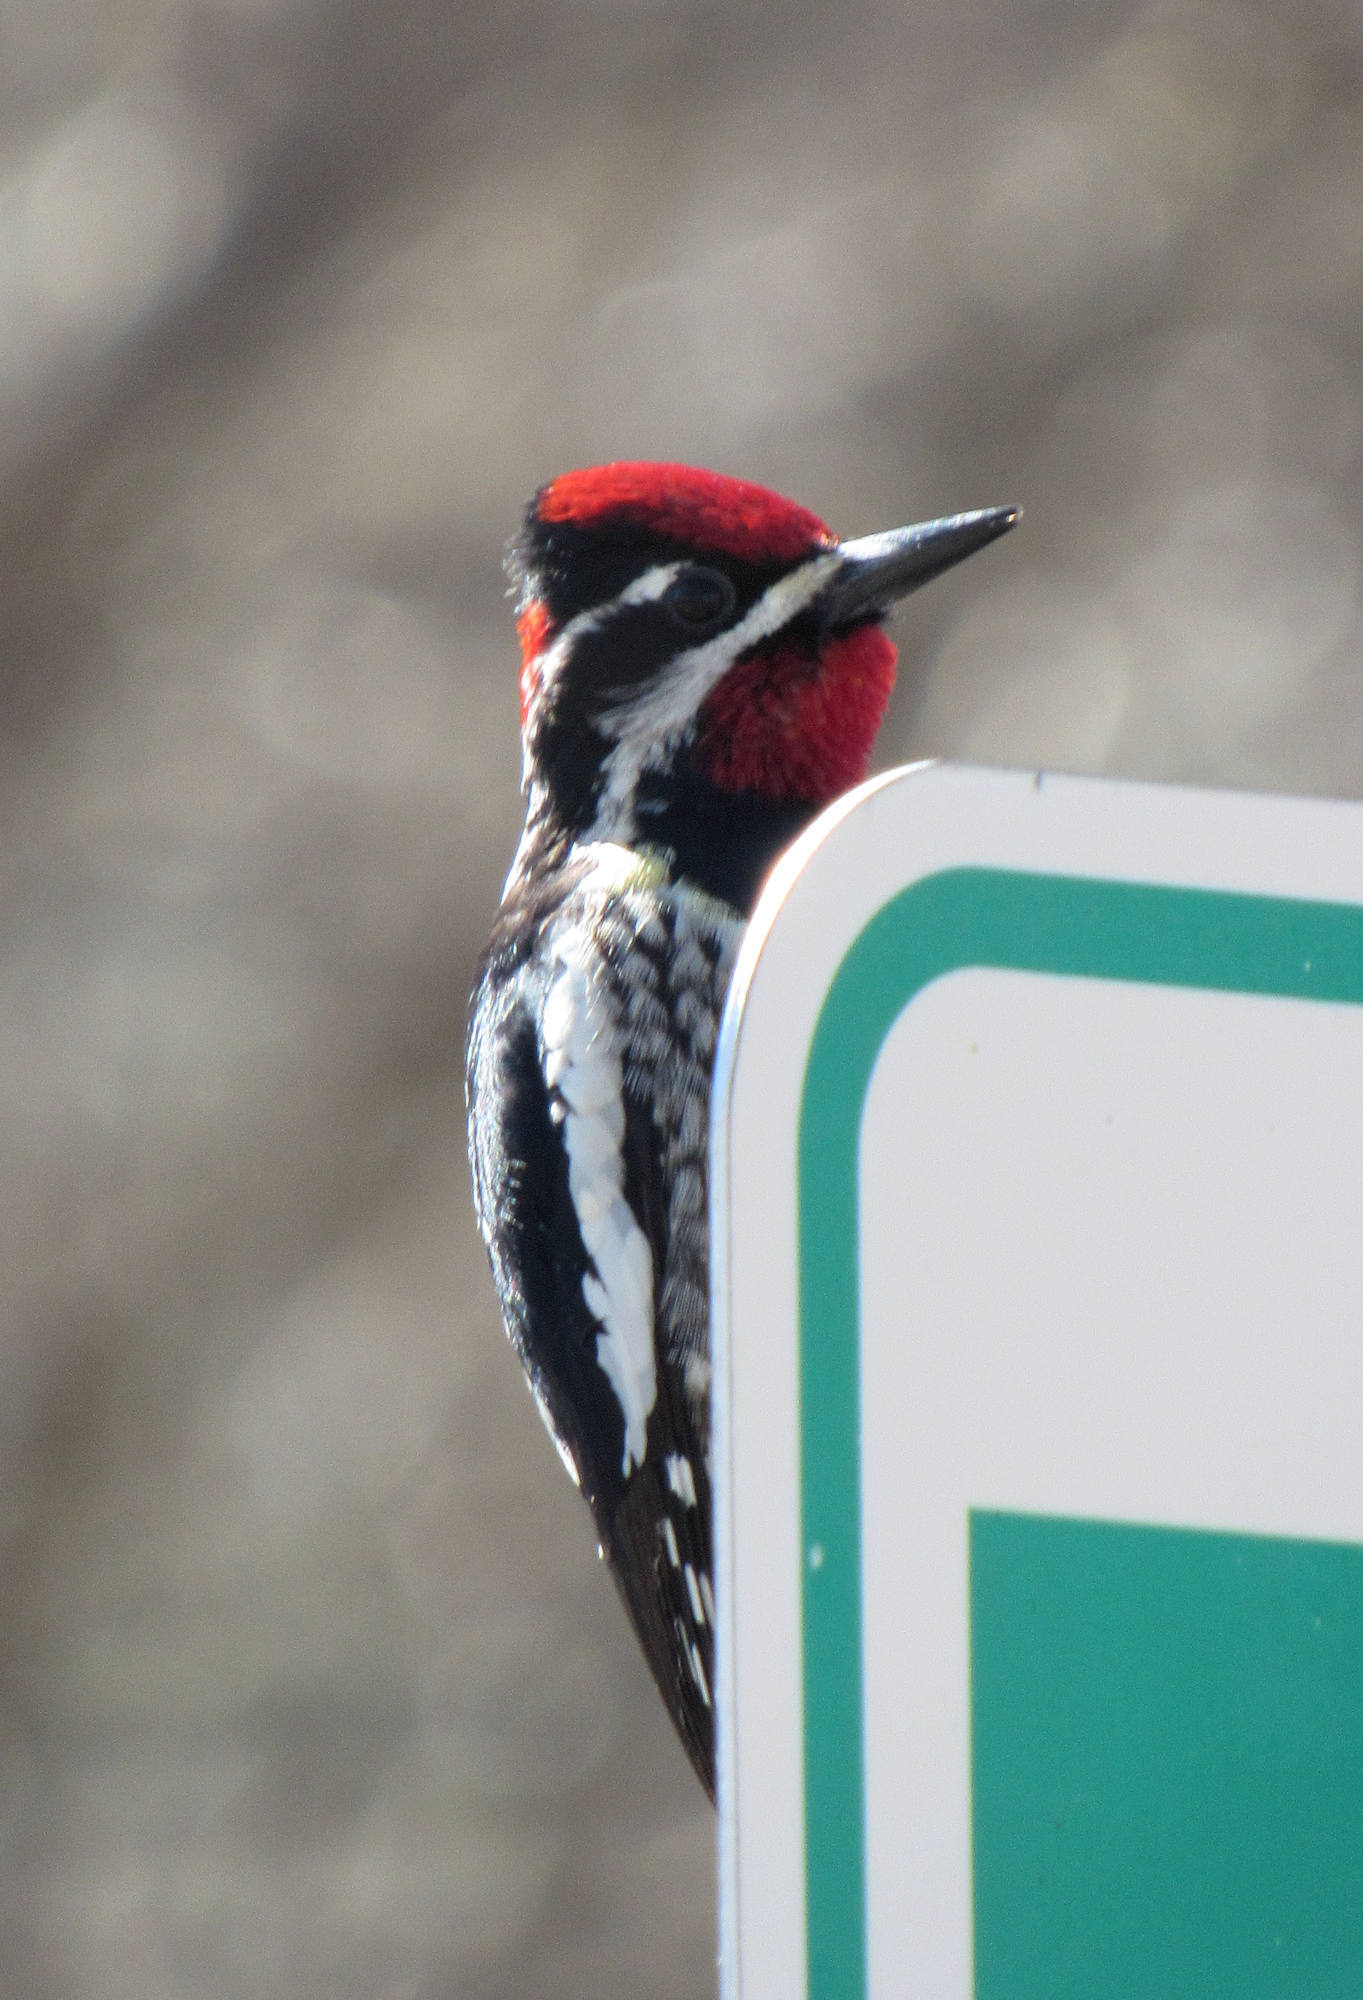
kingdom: Animalia
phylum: Chordata
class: Aves
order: Piciformes
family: Picidae
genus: Sphyrapicus
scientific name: Sphyrapicus nuchalis
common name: Red-naped sapsucker
